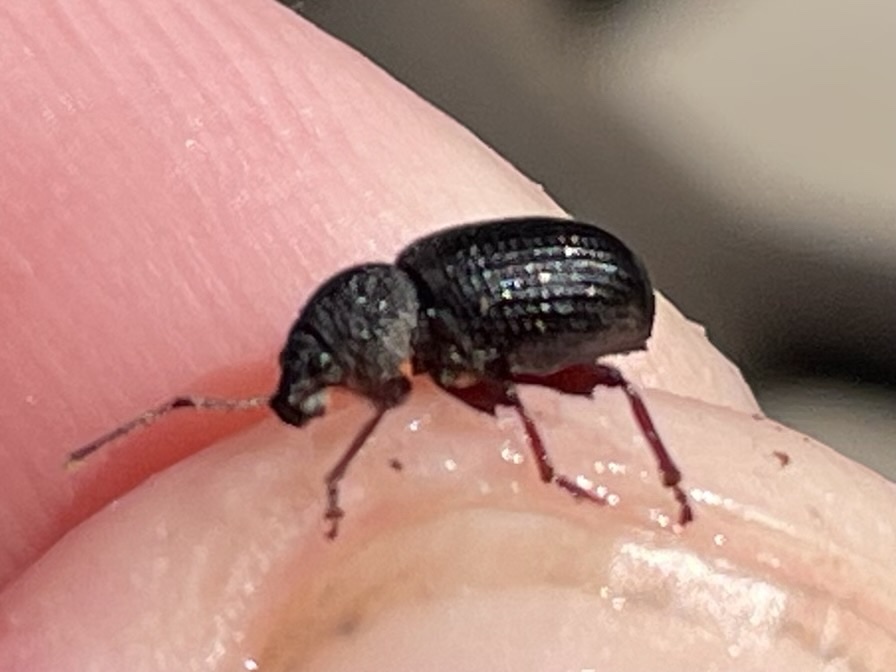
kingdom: Animalia
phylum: Arthropoda
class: Insecta
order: Coleoptera
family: Curculionidae
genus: Otiorhynchus
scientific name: Otiorhynchus ovatus
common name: Strawberry root weevil
